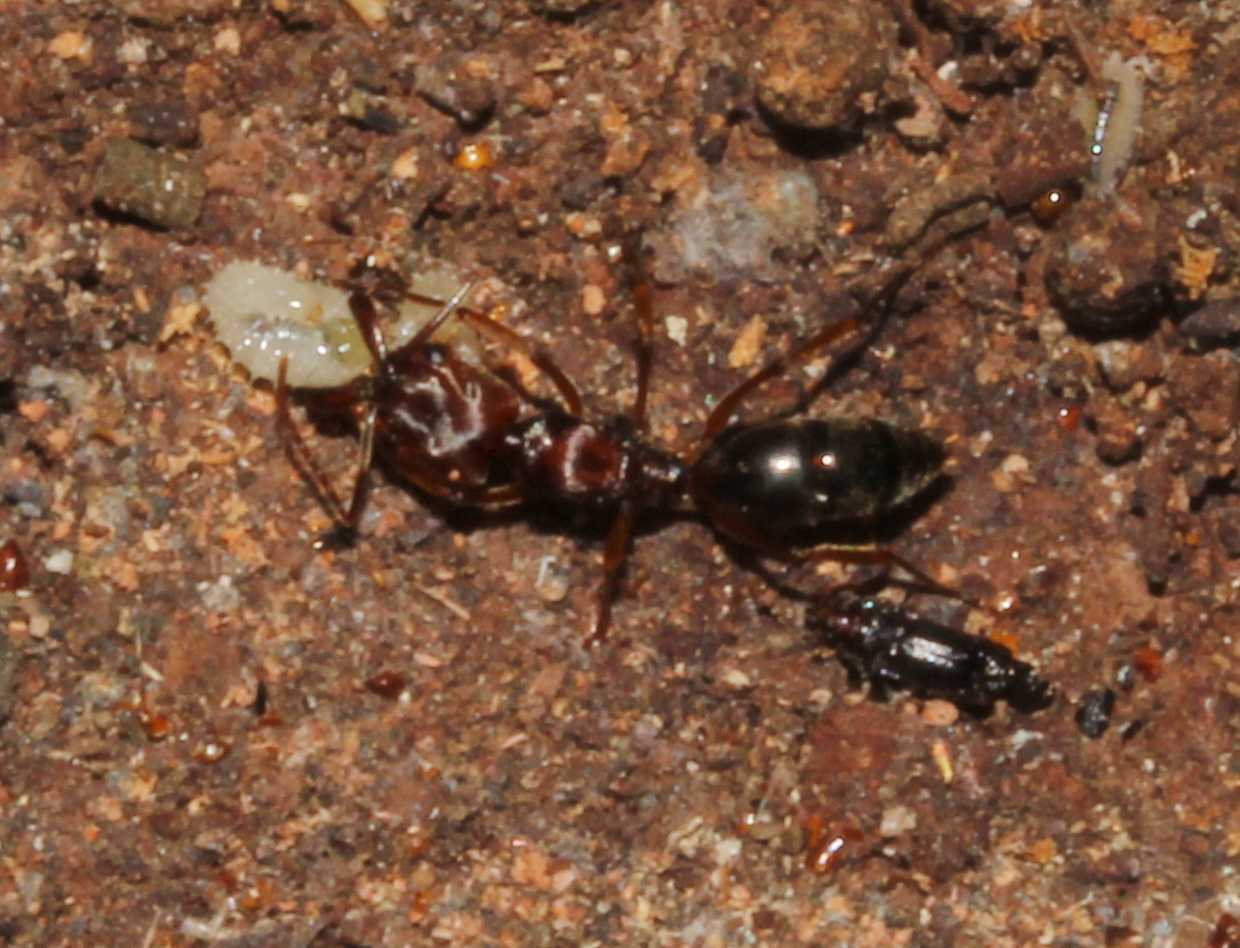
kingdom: Animalia
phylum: Arthropoda
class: Insecta
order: Hymenoptera
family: Formicidae
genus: Odontomachus
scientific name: Odontomachus
